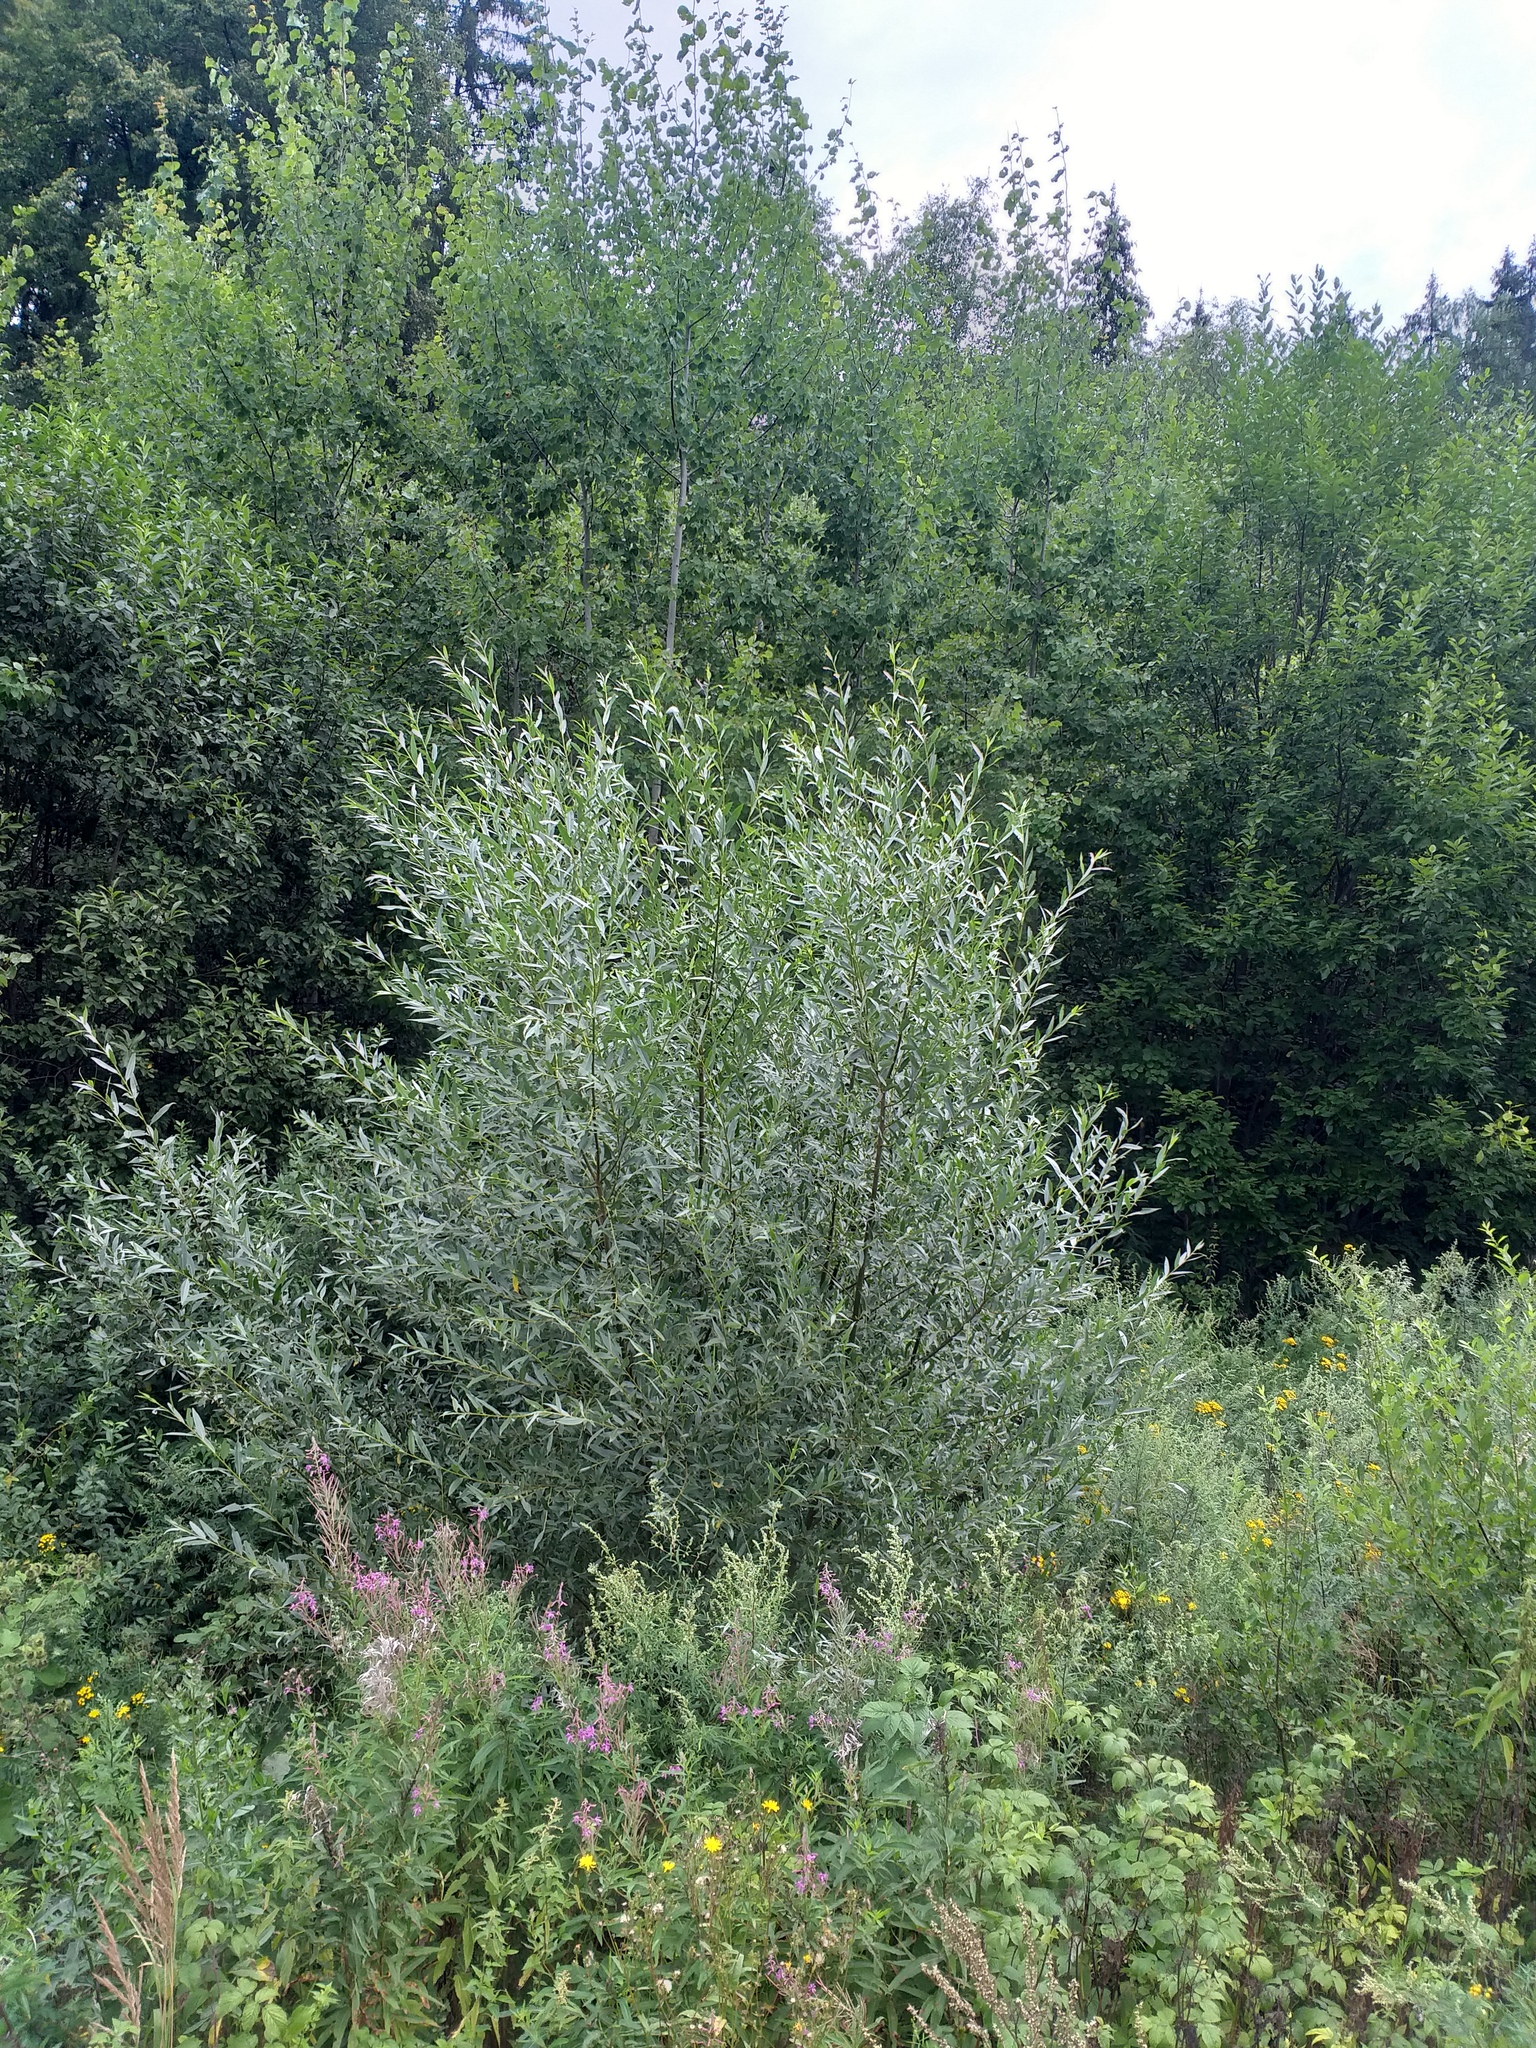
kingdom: Plantae
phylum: Tracheophyta
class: Magnoliopsida
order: Malpighiales
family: Salicaceae
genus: Salix
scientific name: Salix alba
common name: White willow
